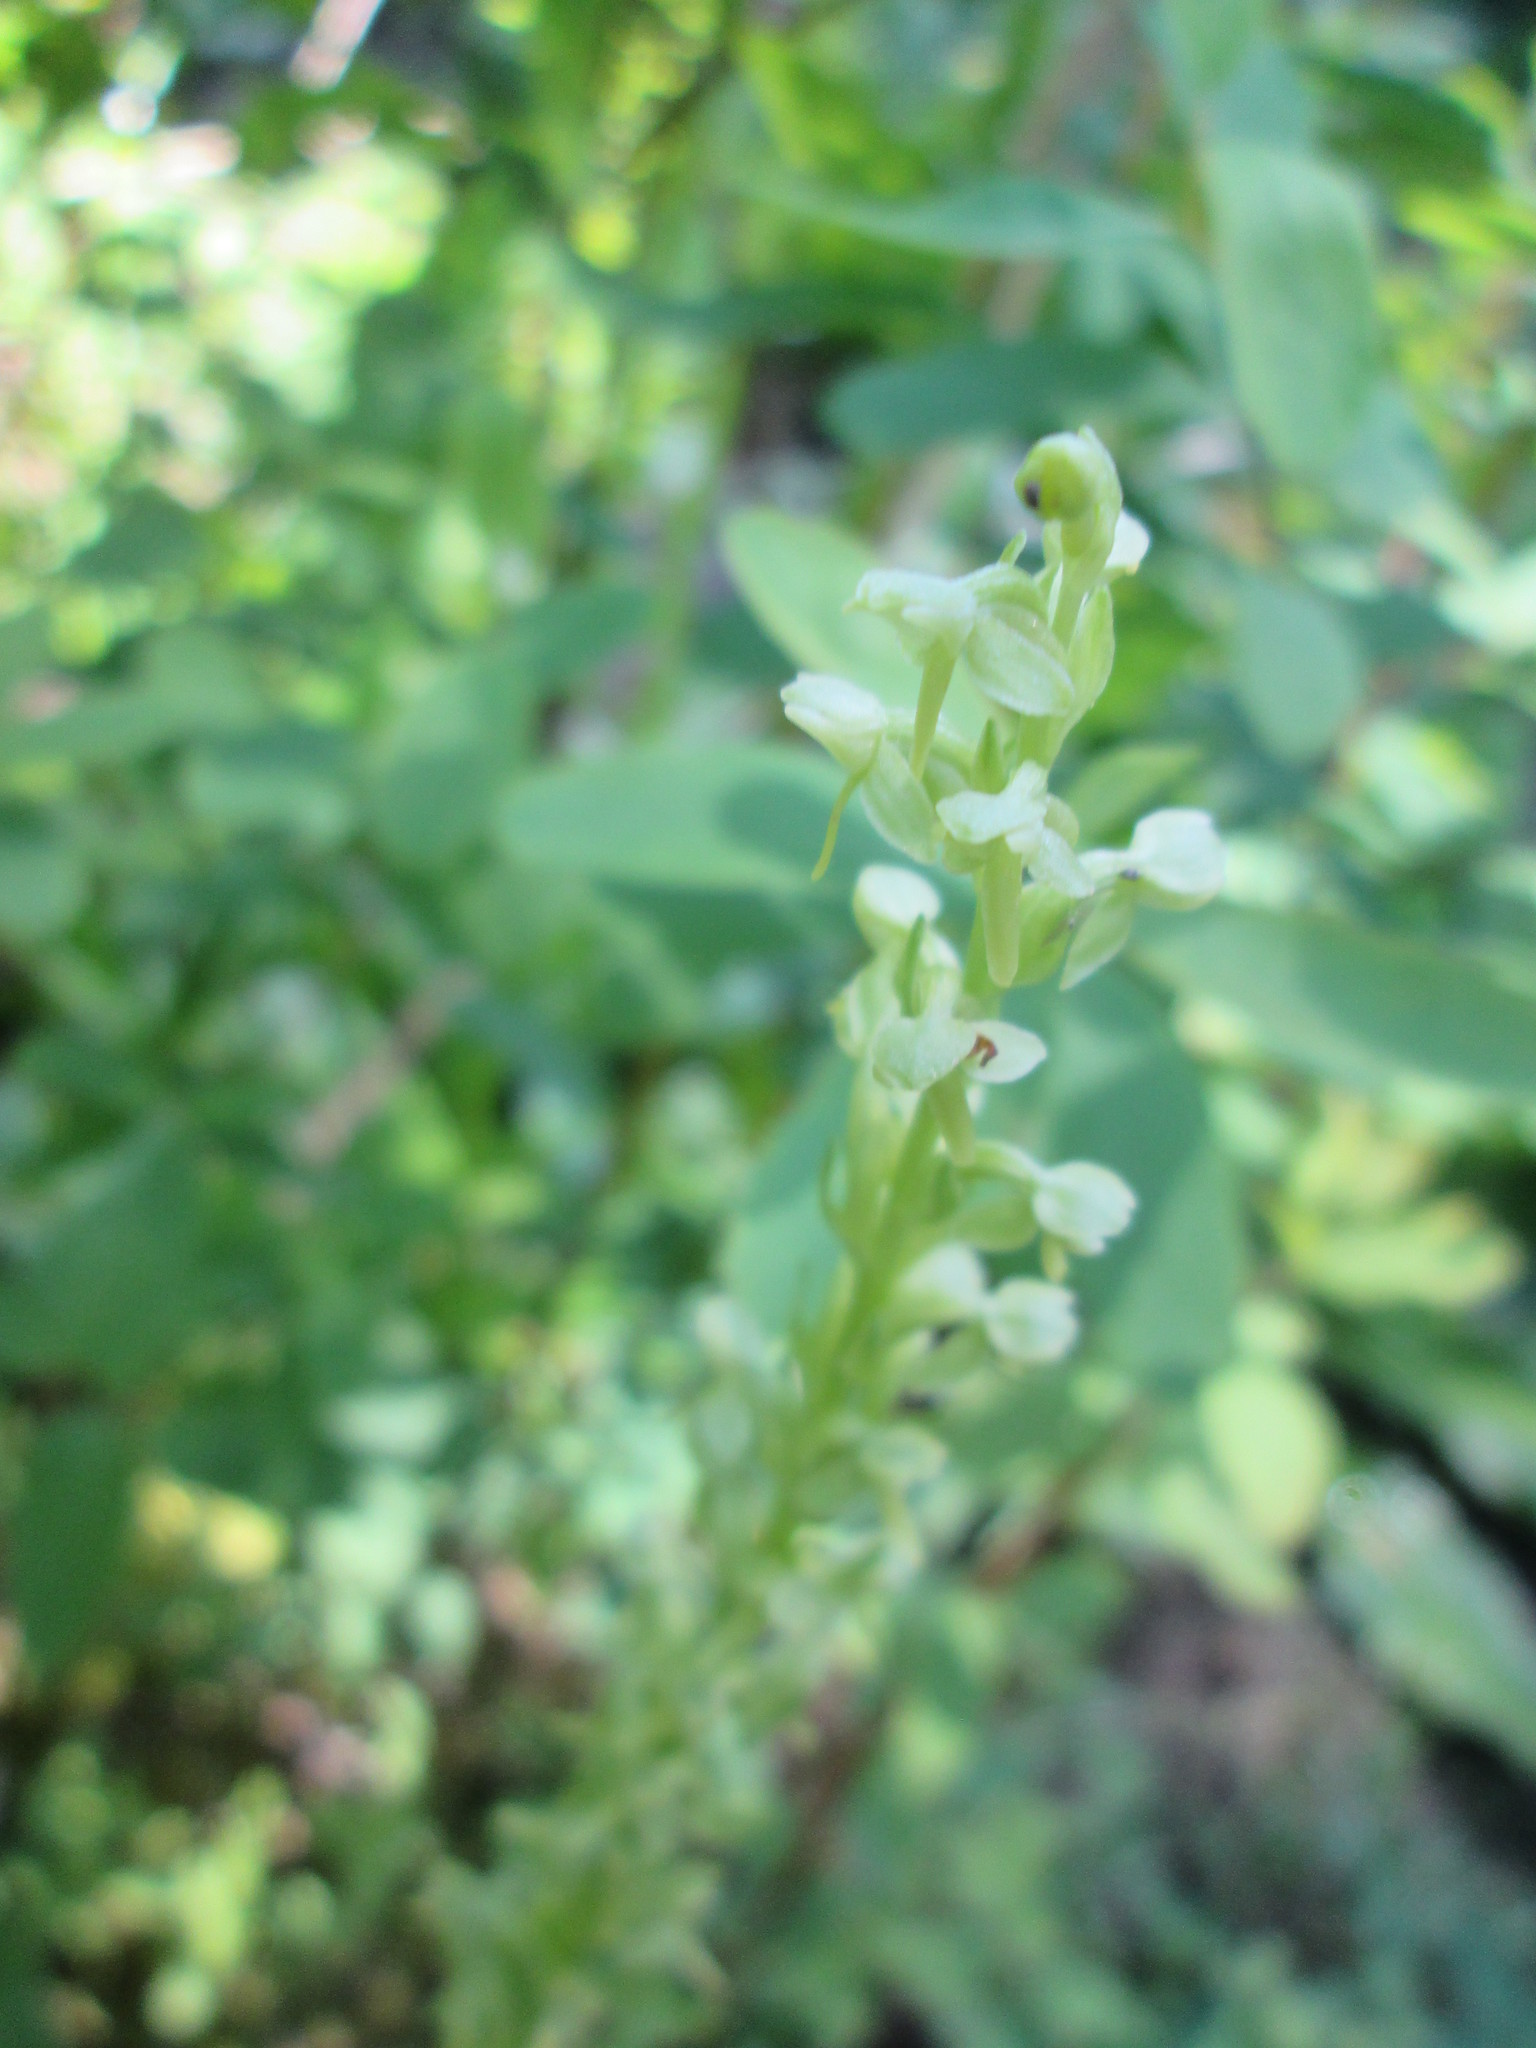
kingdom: Plantae
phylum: Tracheophyta
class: Liliopsida
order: Asparagales
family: Orchidaceae
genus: Platanthera
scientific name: Platanthera stricta
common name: Slender bog orchid
